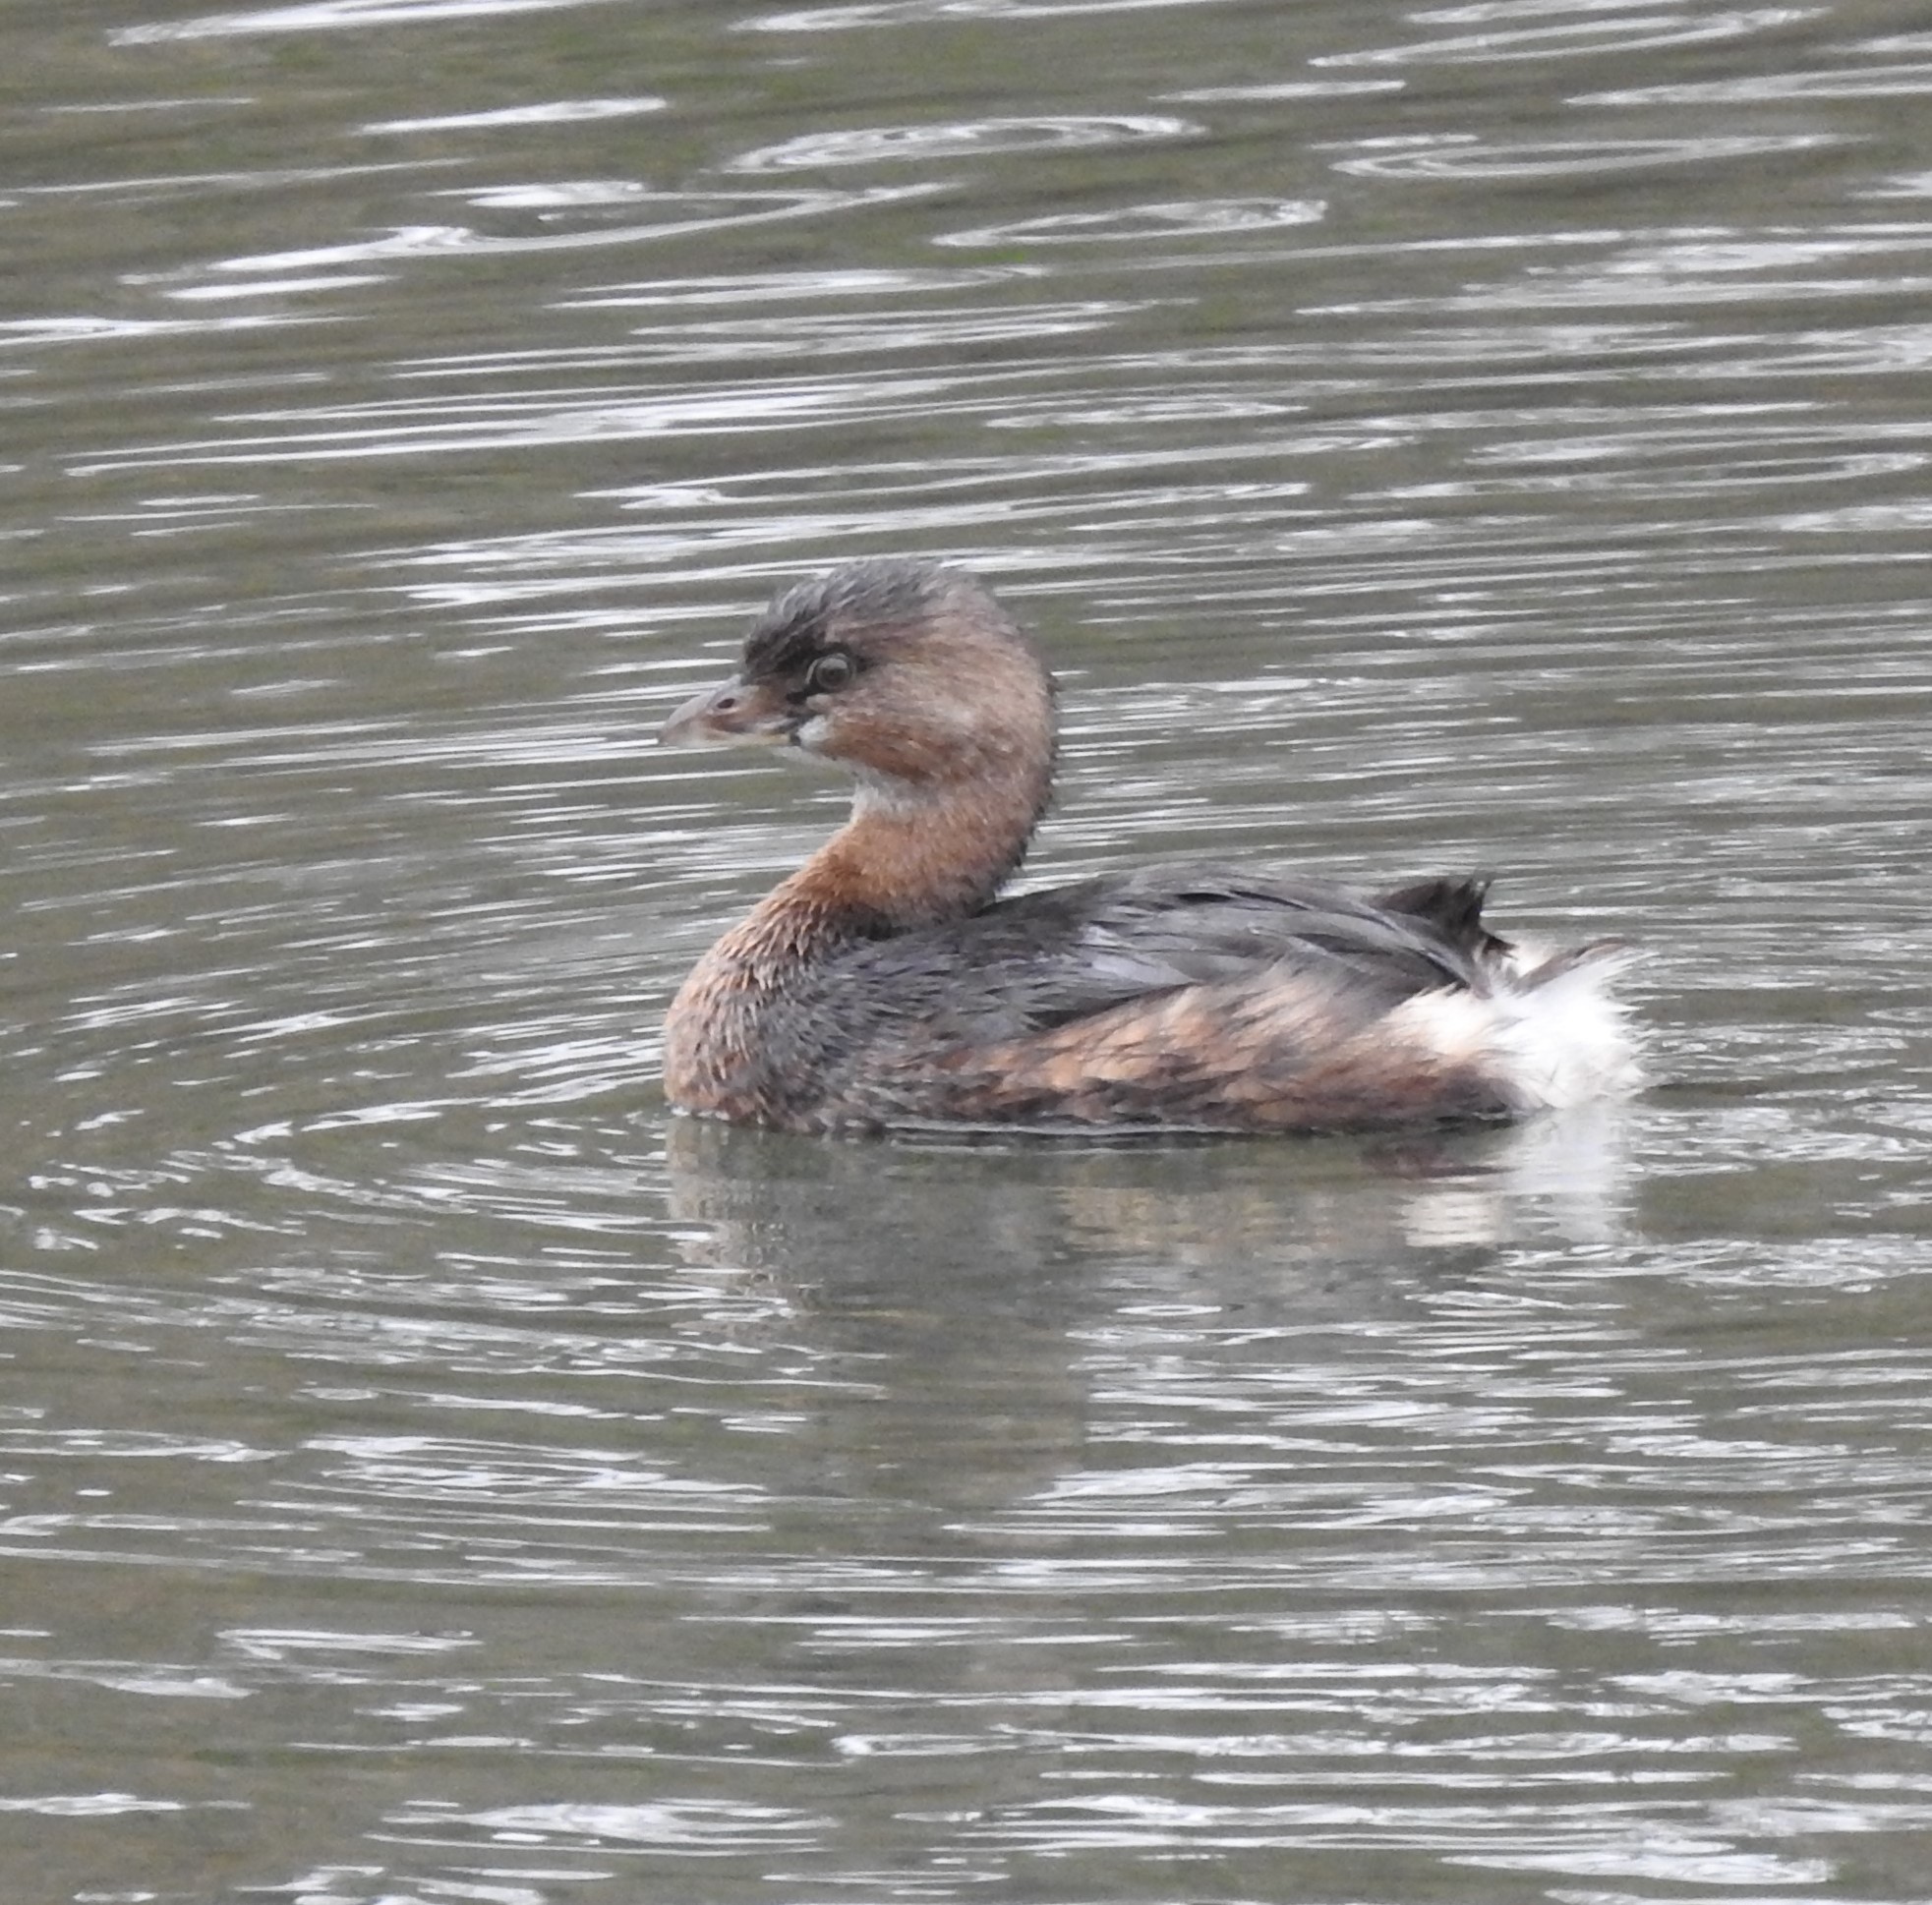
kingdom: Animalia
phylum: Chordata
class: Aves
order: Podicipediformes
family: Podicipedidae
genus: Podilymbus
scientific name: Podilymbus podiceps
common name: Pied-billed grebe
